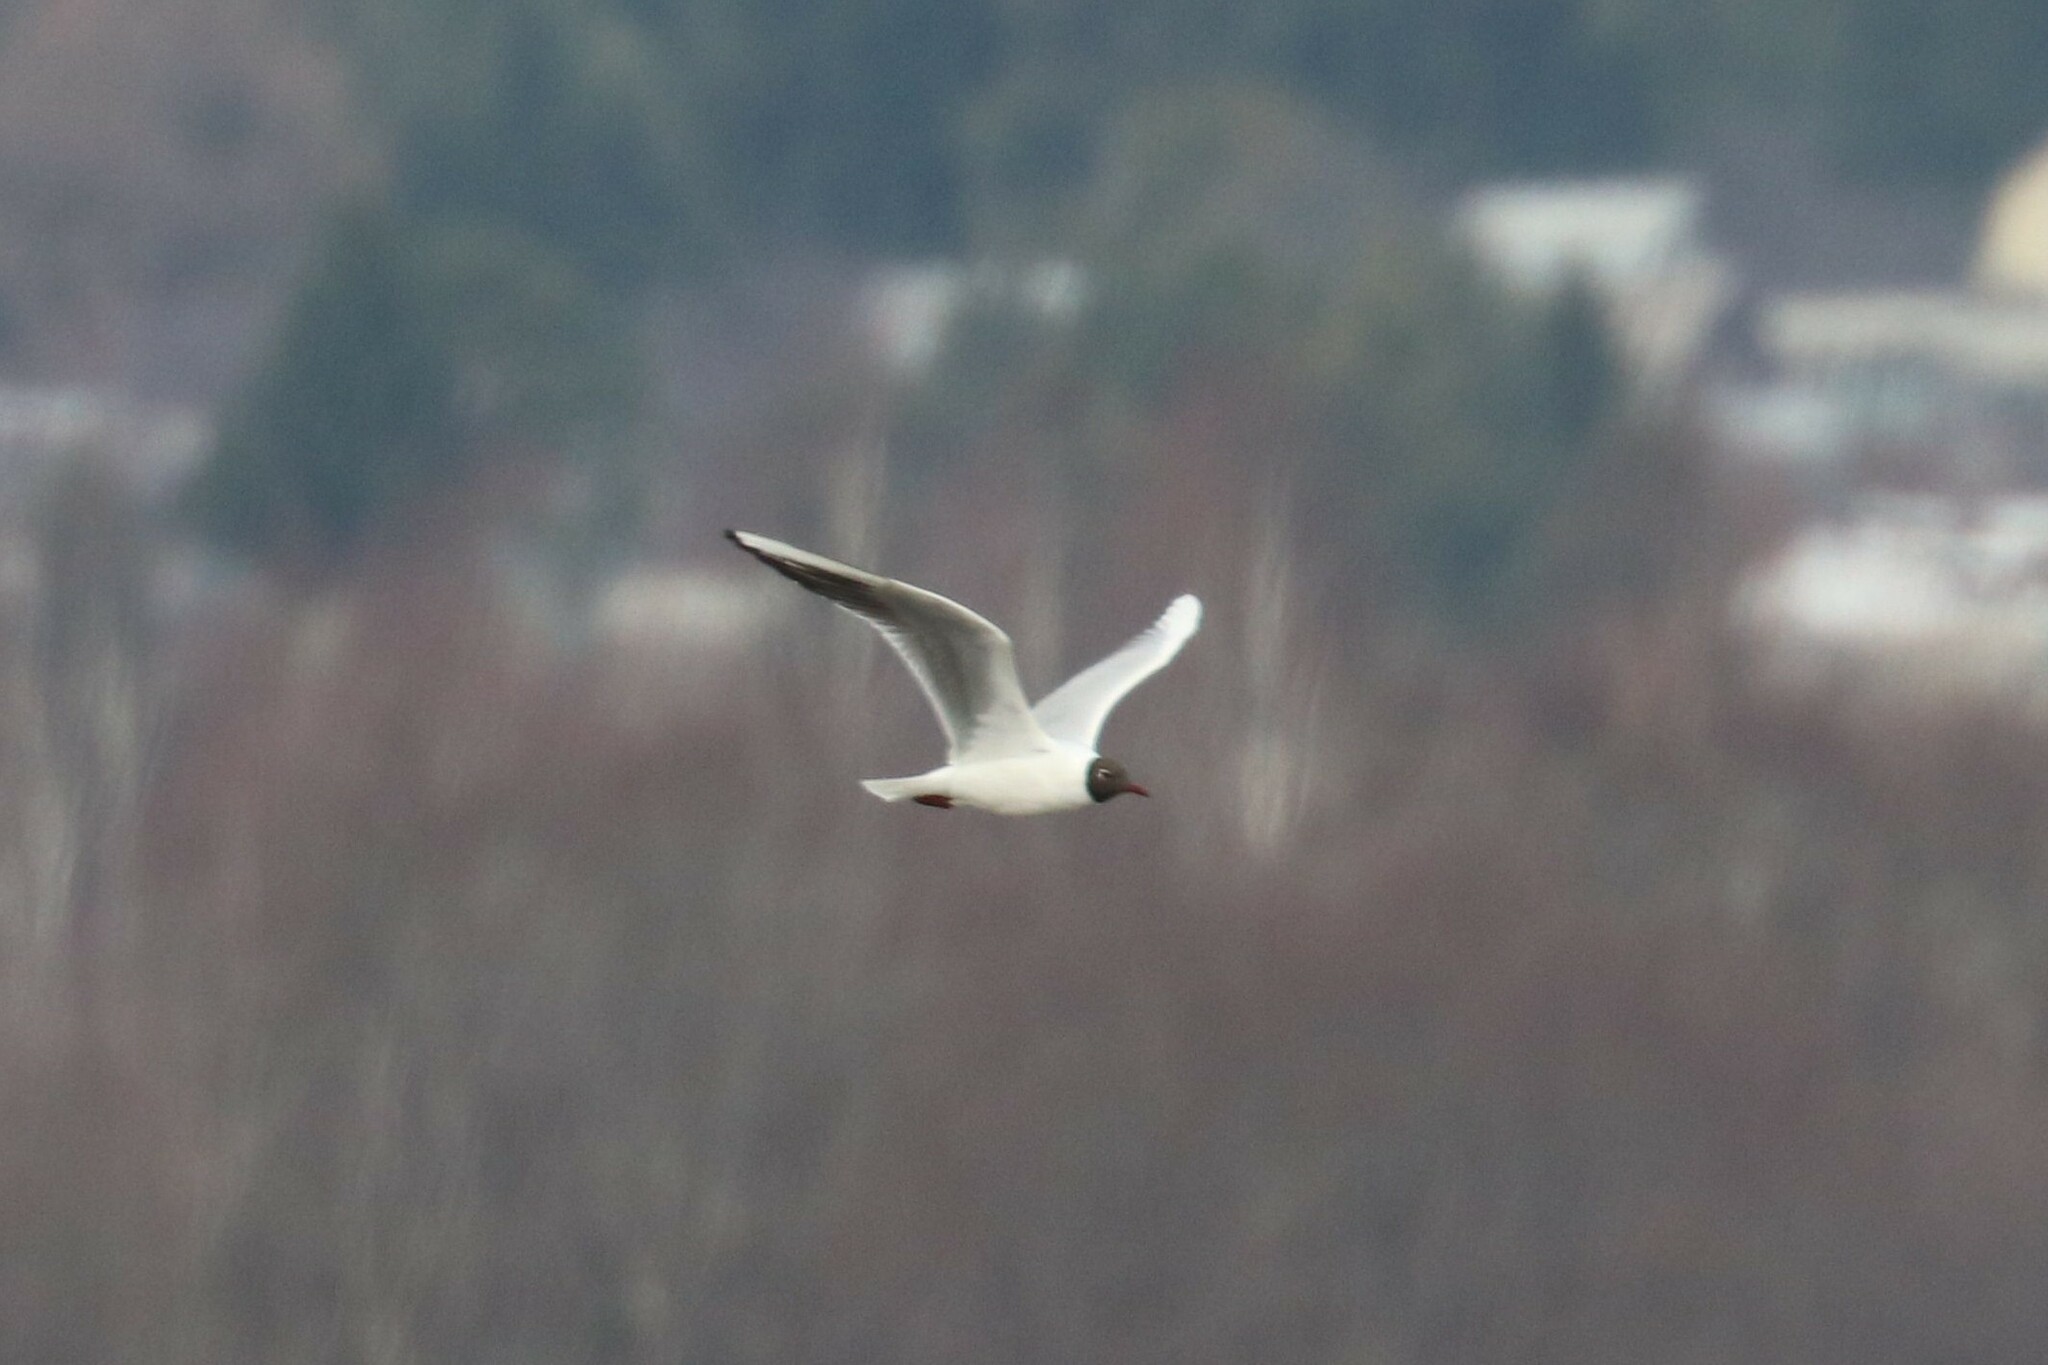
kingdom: Animalia
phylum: Chordata
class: Aves
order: Charadriiformes
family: Laridae
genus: Chroicocephalus
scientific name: Chroicocephalus ridibundus
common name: Black-headed gull
